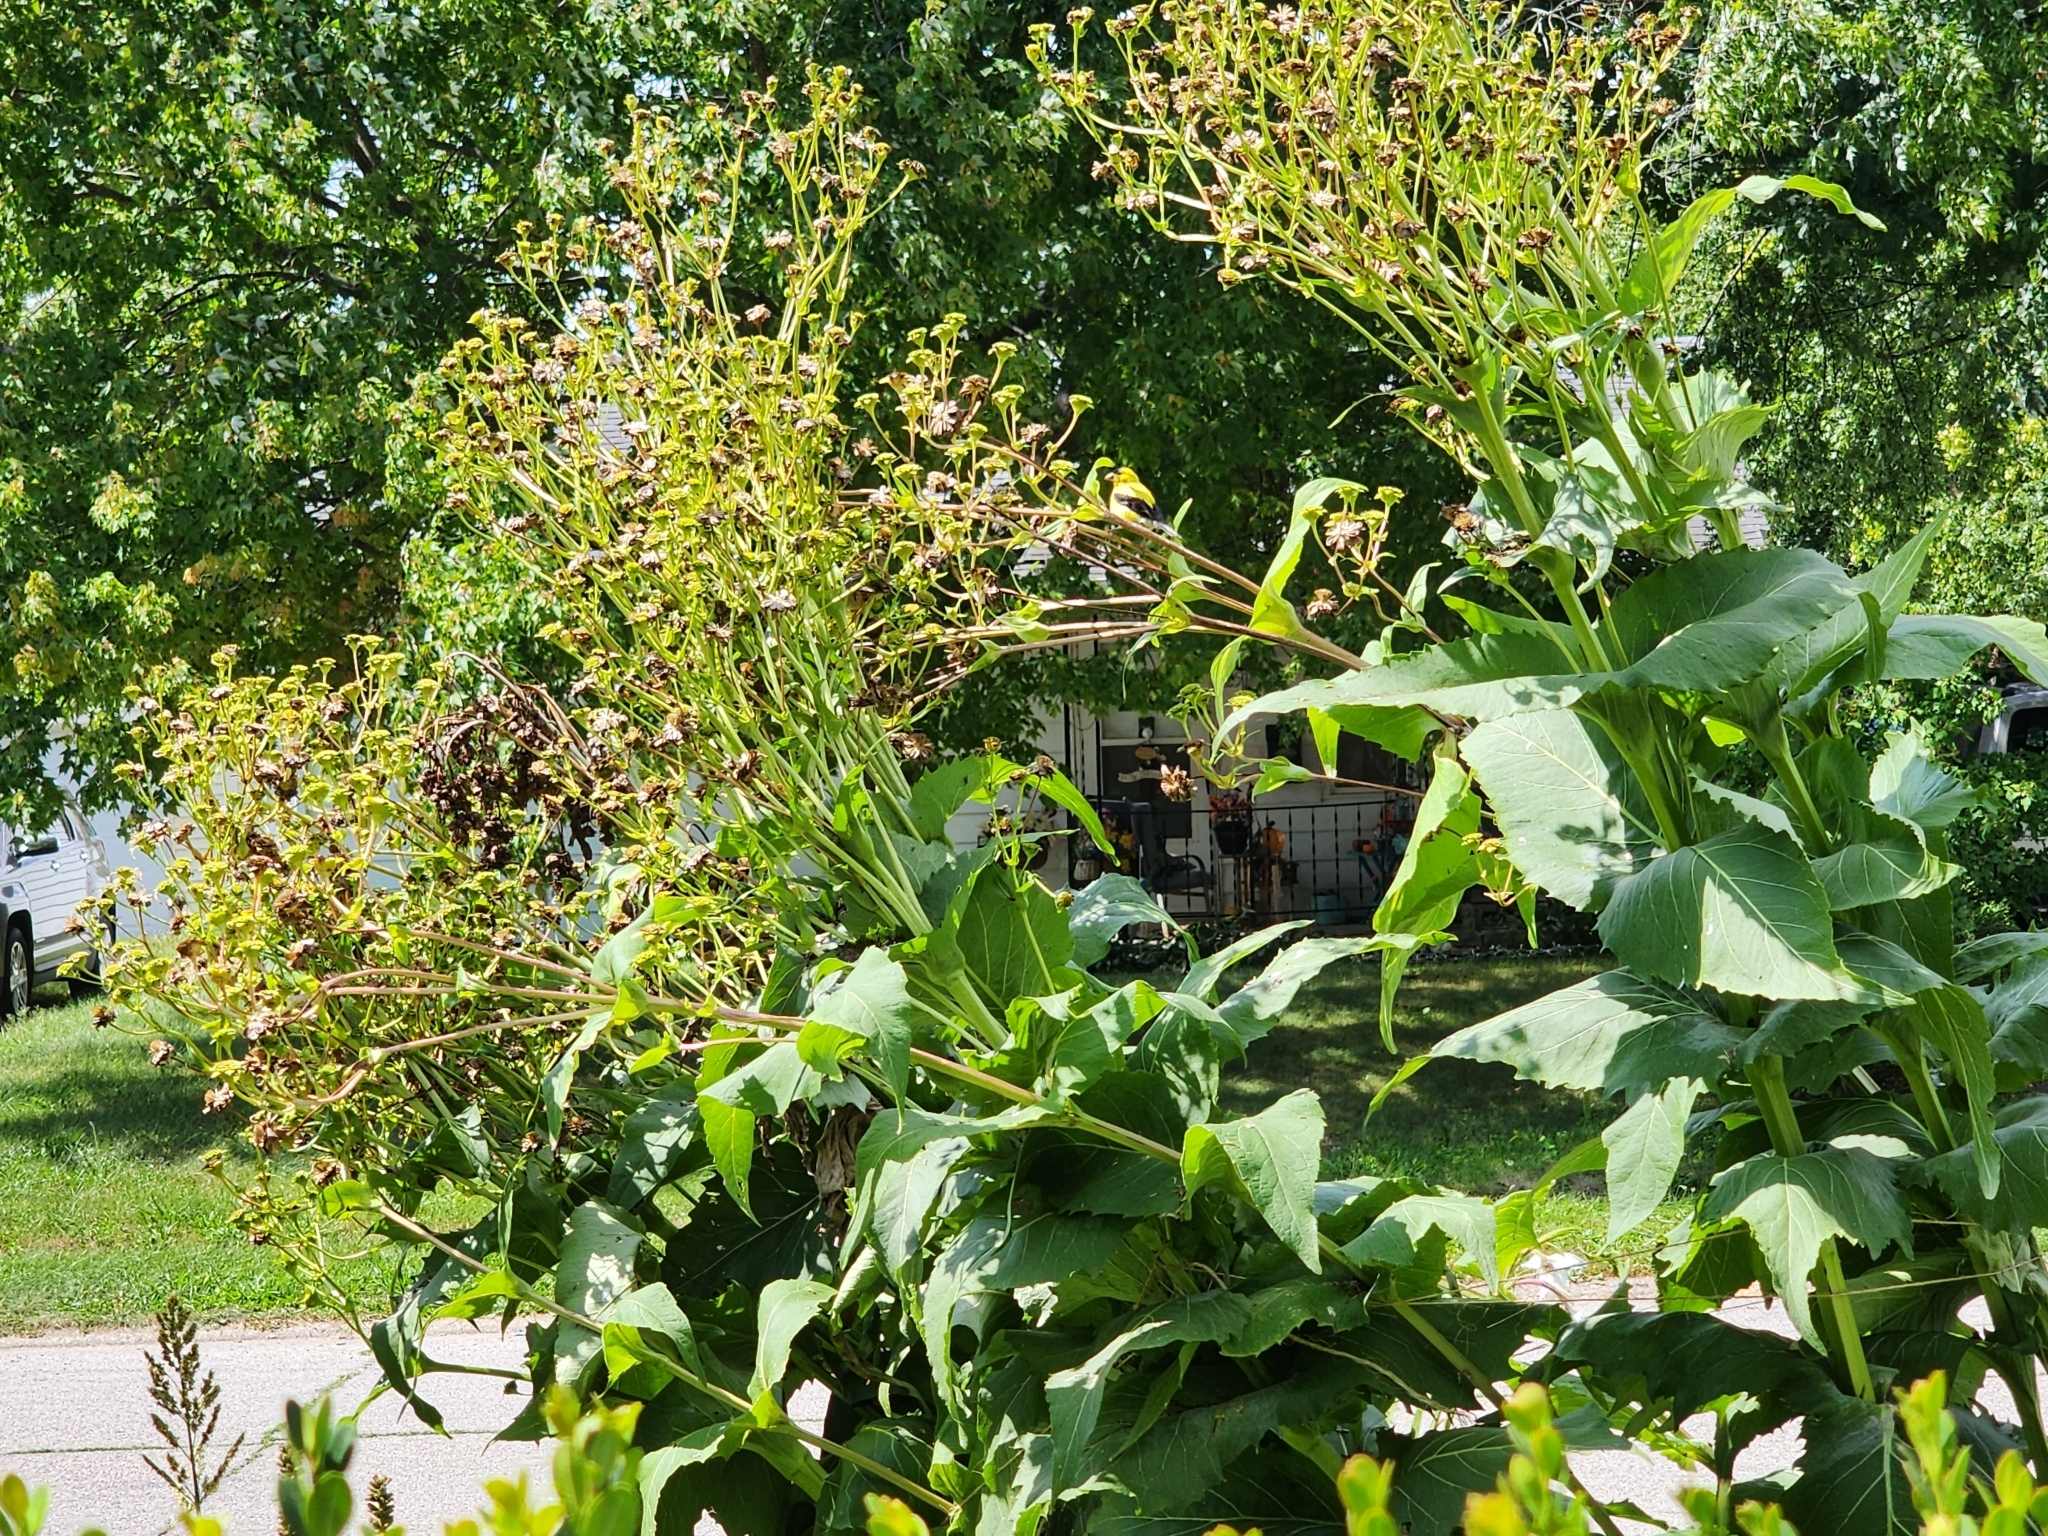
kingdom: Animalia
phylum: Chordata
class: Aves
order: Passeriformes
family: Fringillidae
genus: Spinus
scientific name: Spinus tristis
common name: American goldfinch
